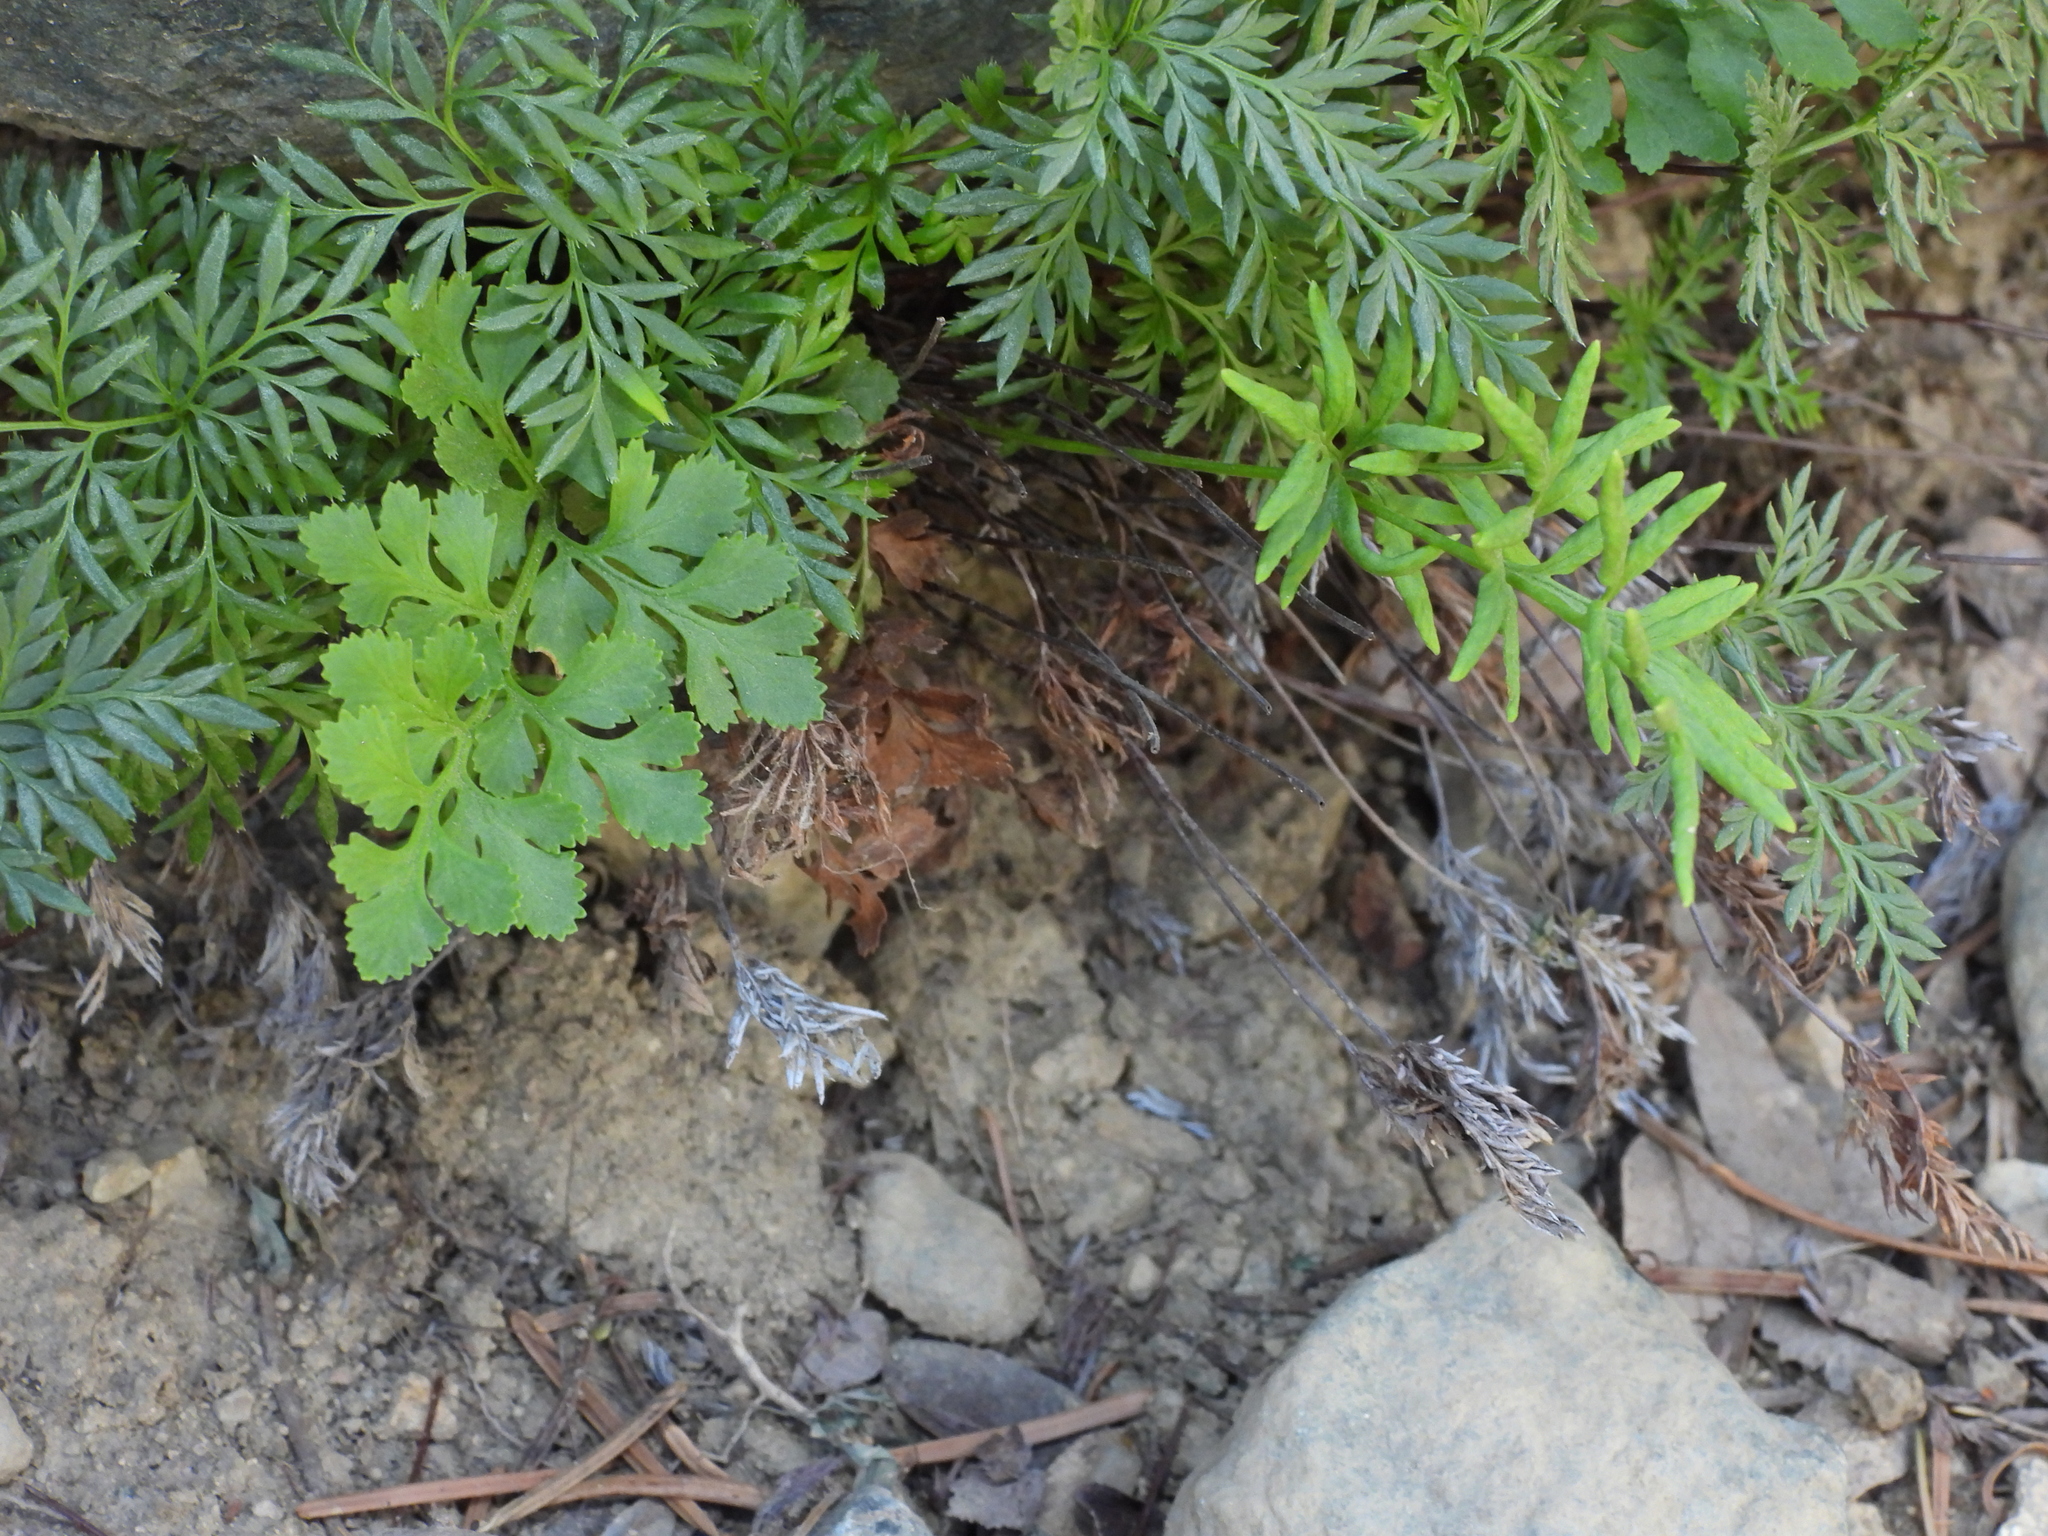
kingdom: Plantae
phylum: Tracheophyta
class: Polypodiopsida
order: Polypodiales
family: Pteridaceae
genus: Cryptogramma
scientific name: Cryptogramma acrostichoides
